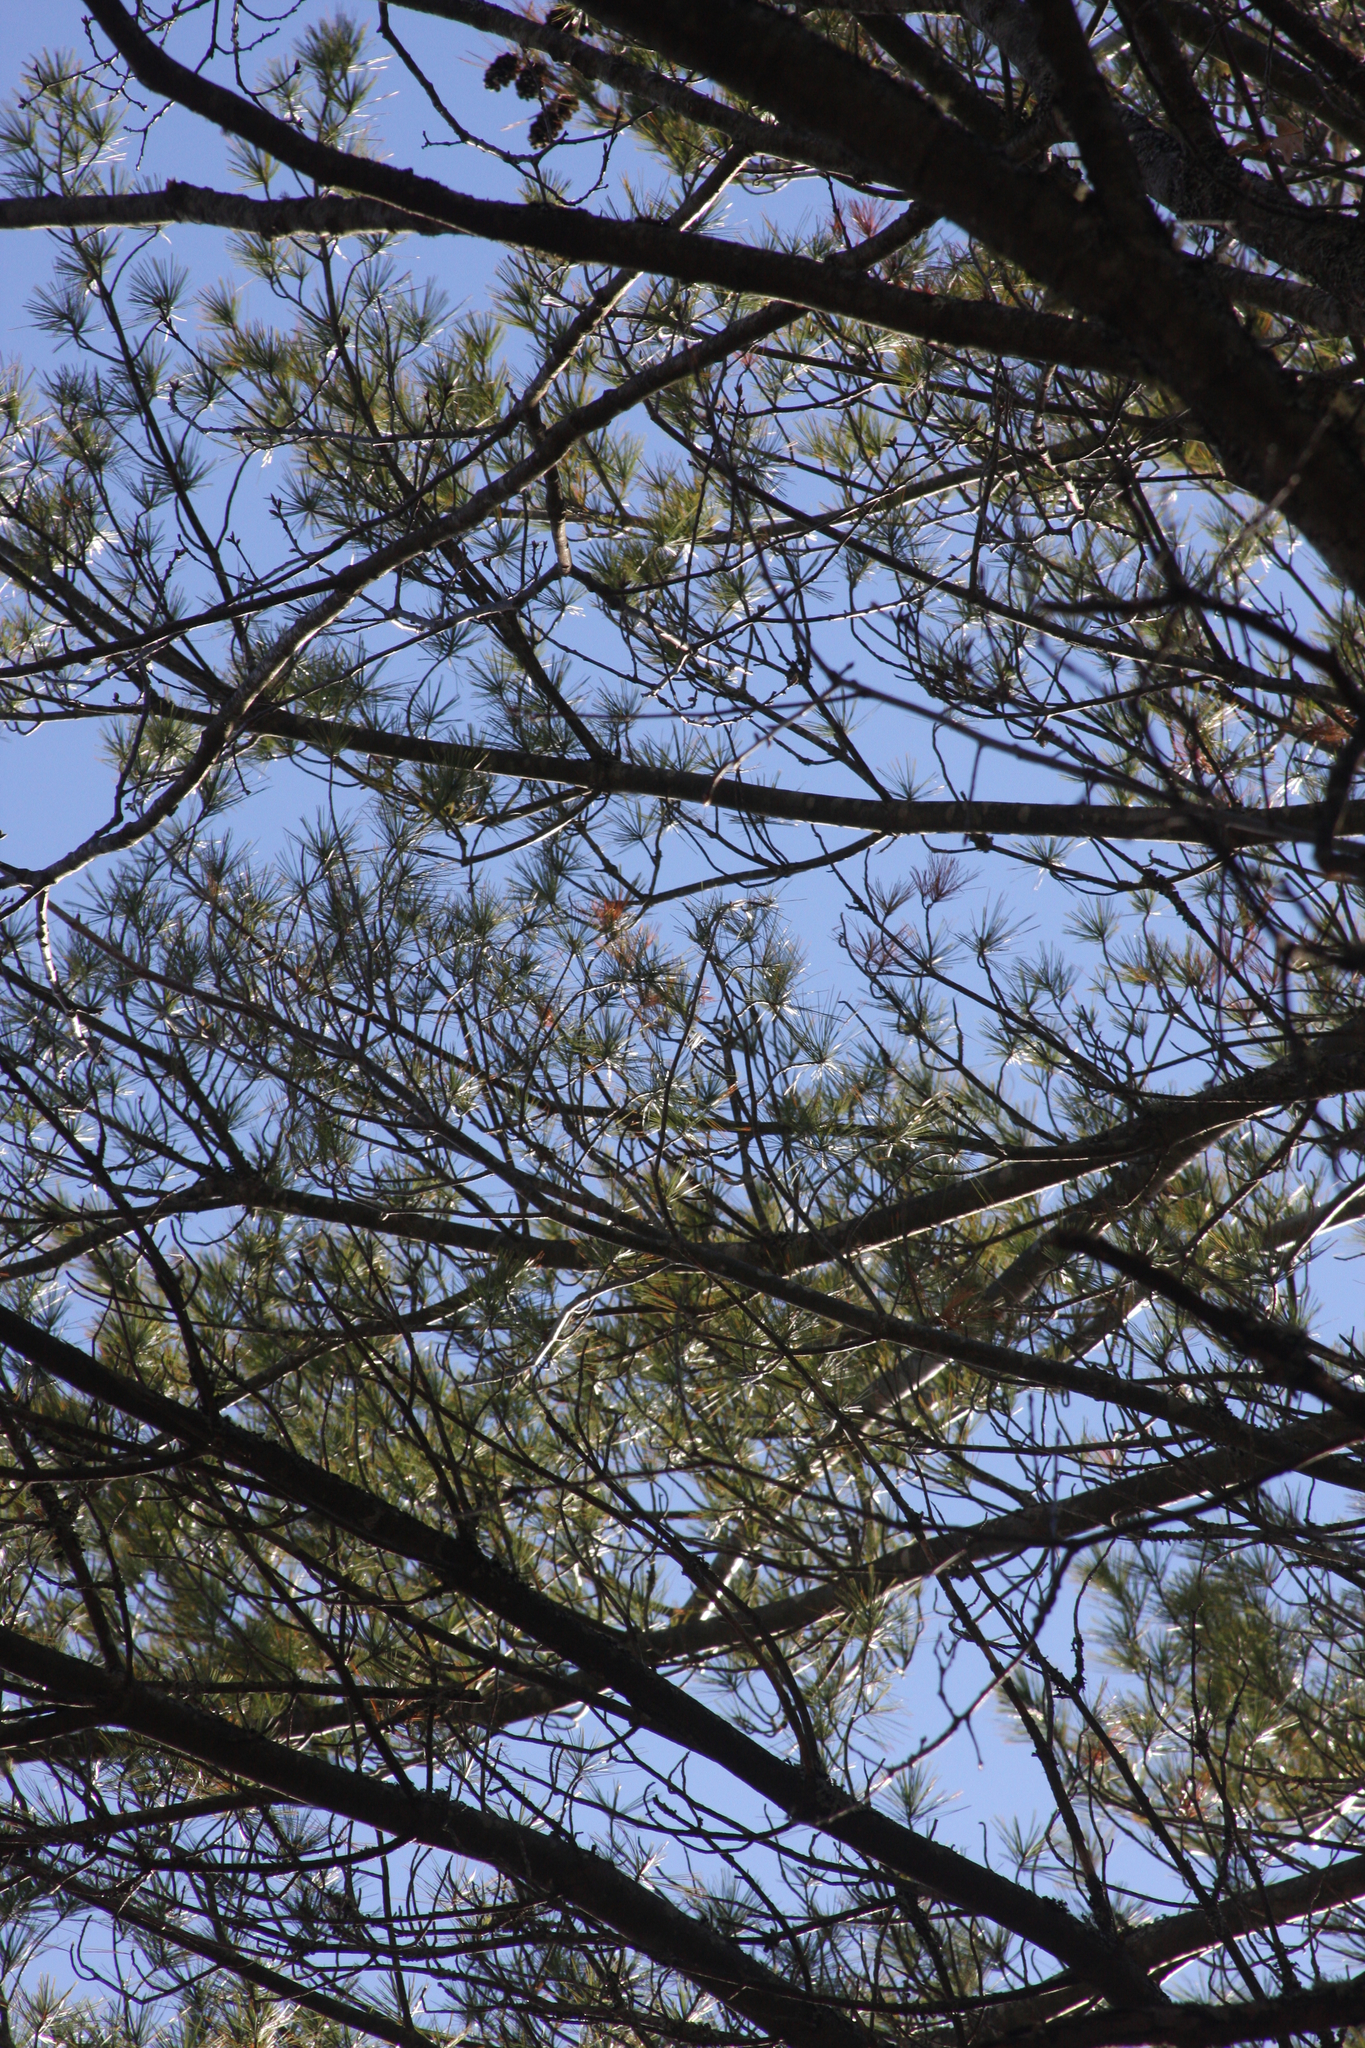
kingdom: Plantae
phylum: Tracheophyta
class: Pinopsida
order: Pinales
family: Pinaceae
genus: Pinus
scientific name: Pinus strobus
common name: Weymouth pine
